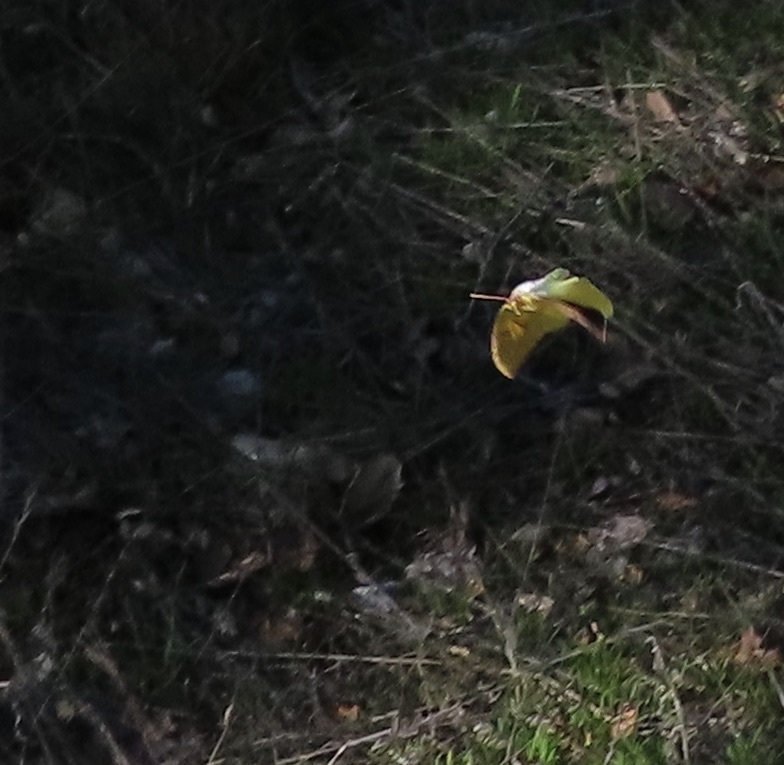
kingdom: Animalia
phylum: Arthropoda
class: Insecta
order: Lepidoptera
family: Pieridae
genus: Zerene
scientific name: Zerene eurydice
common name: California dogface
